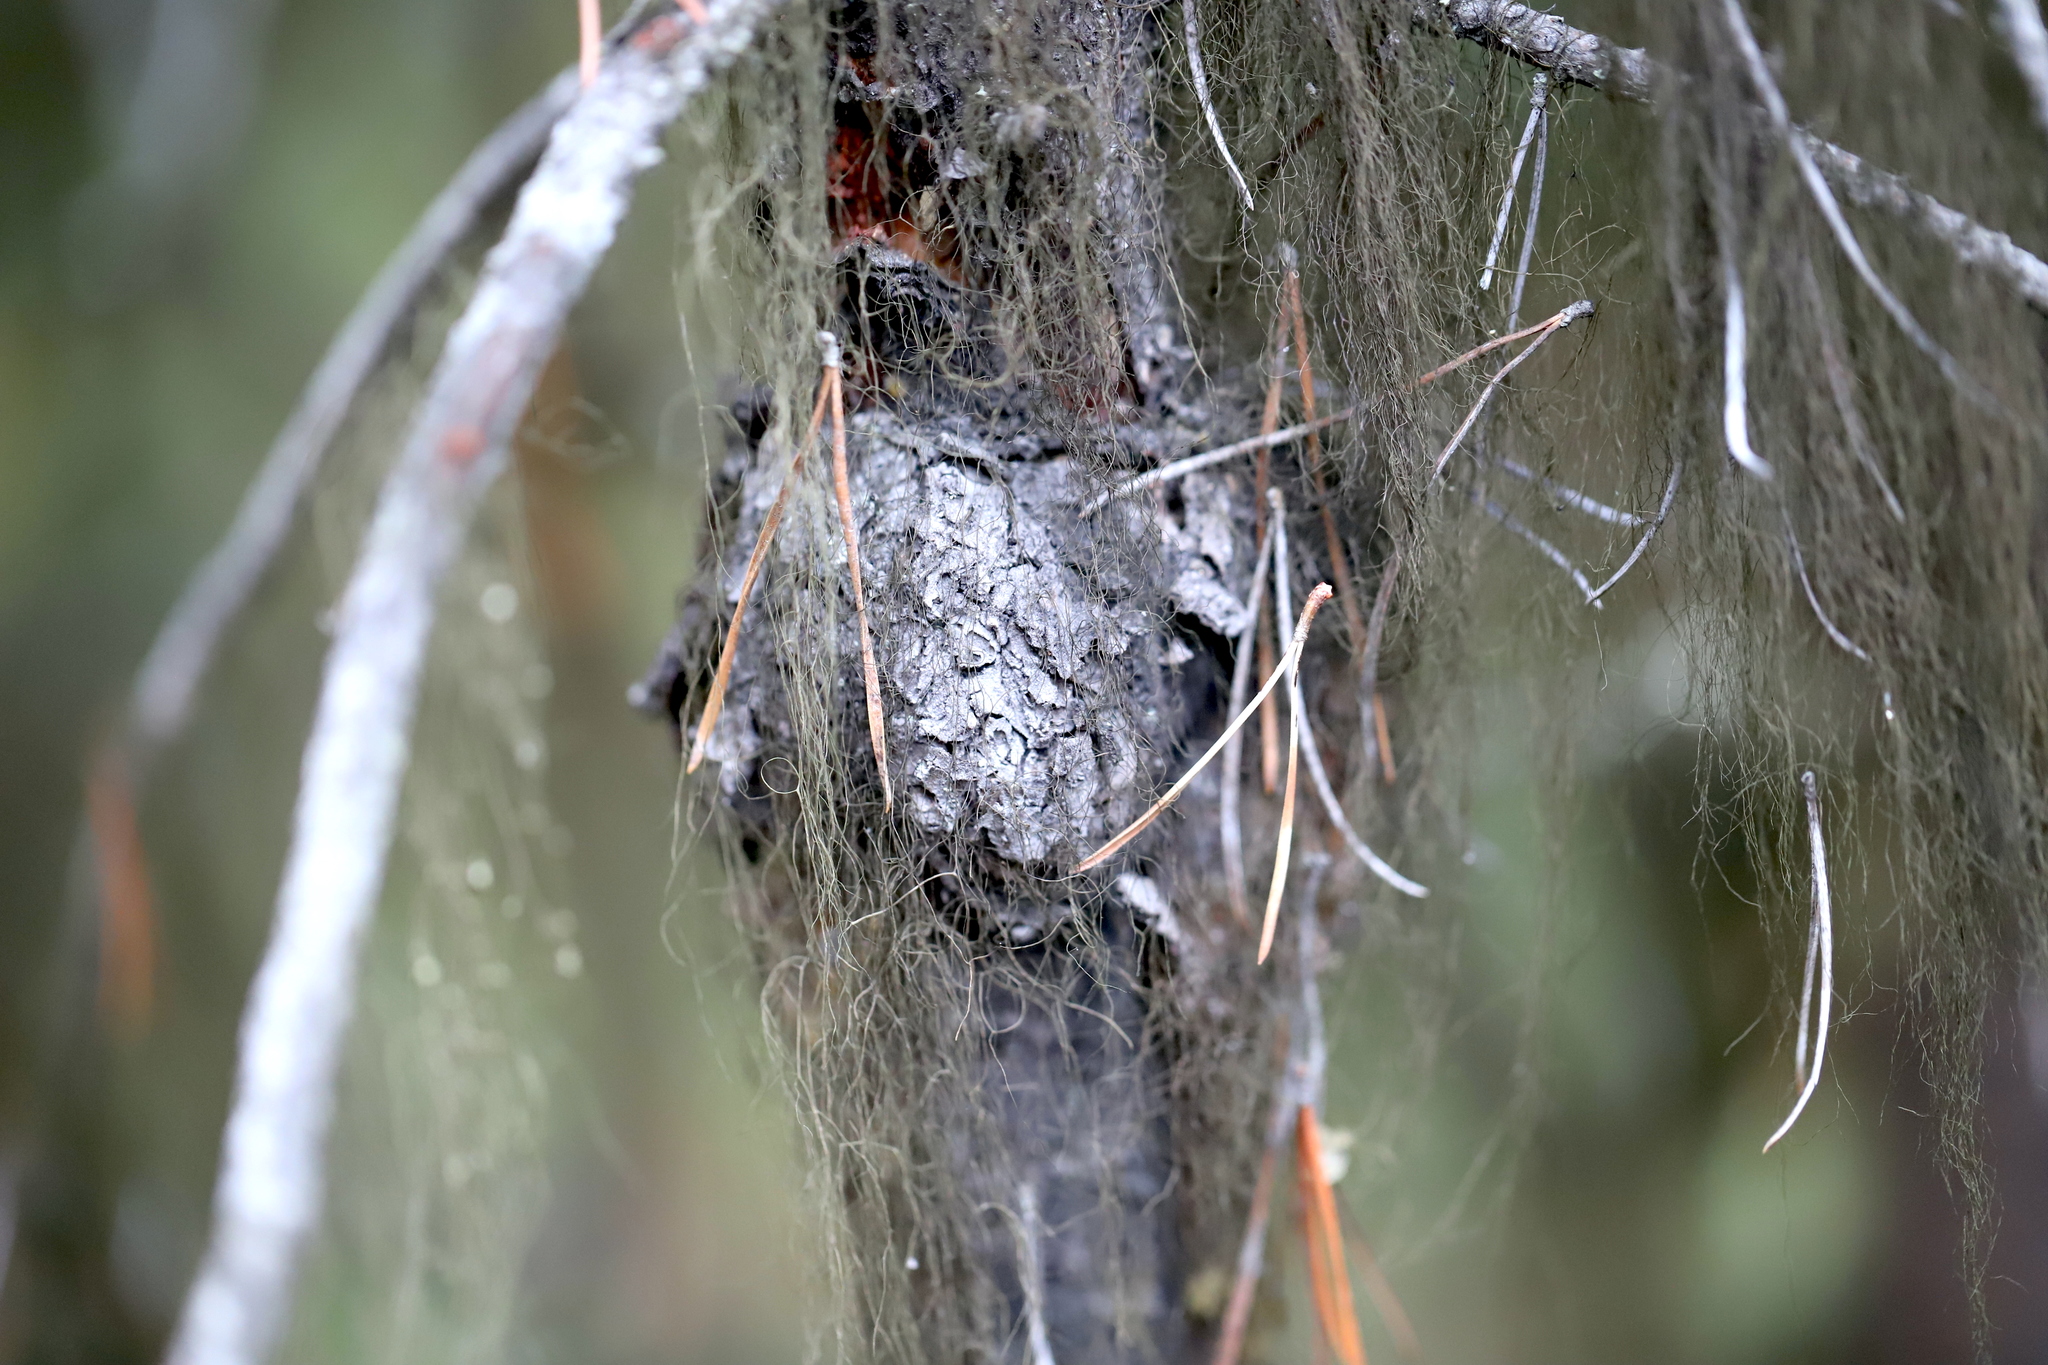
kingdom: Fungi
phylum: Basidiomycota
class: Pucciniomycetes
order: Pucciniales
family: Cronartiaceae
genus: Cronartium
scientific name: Cronartium harknessii
